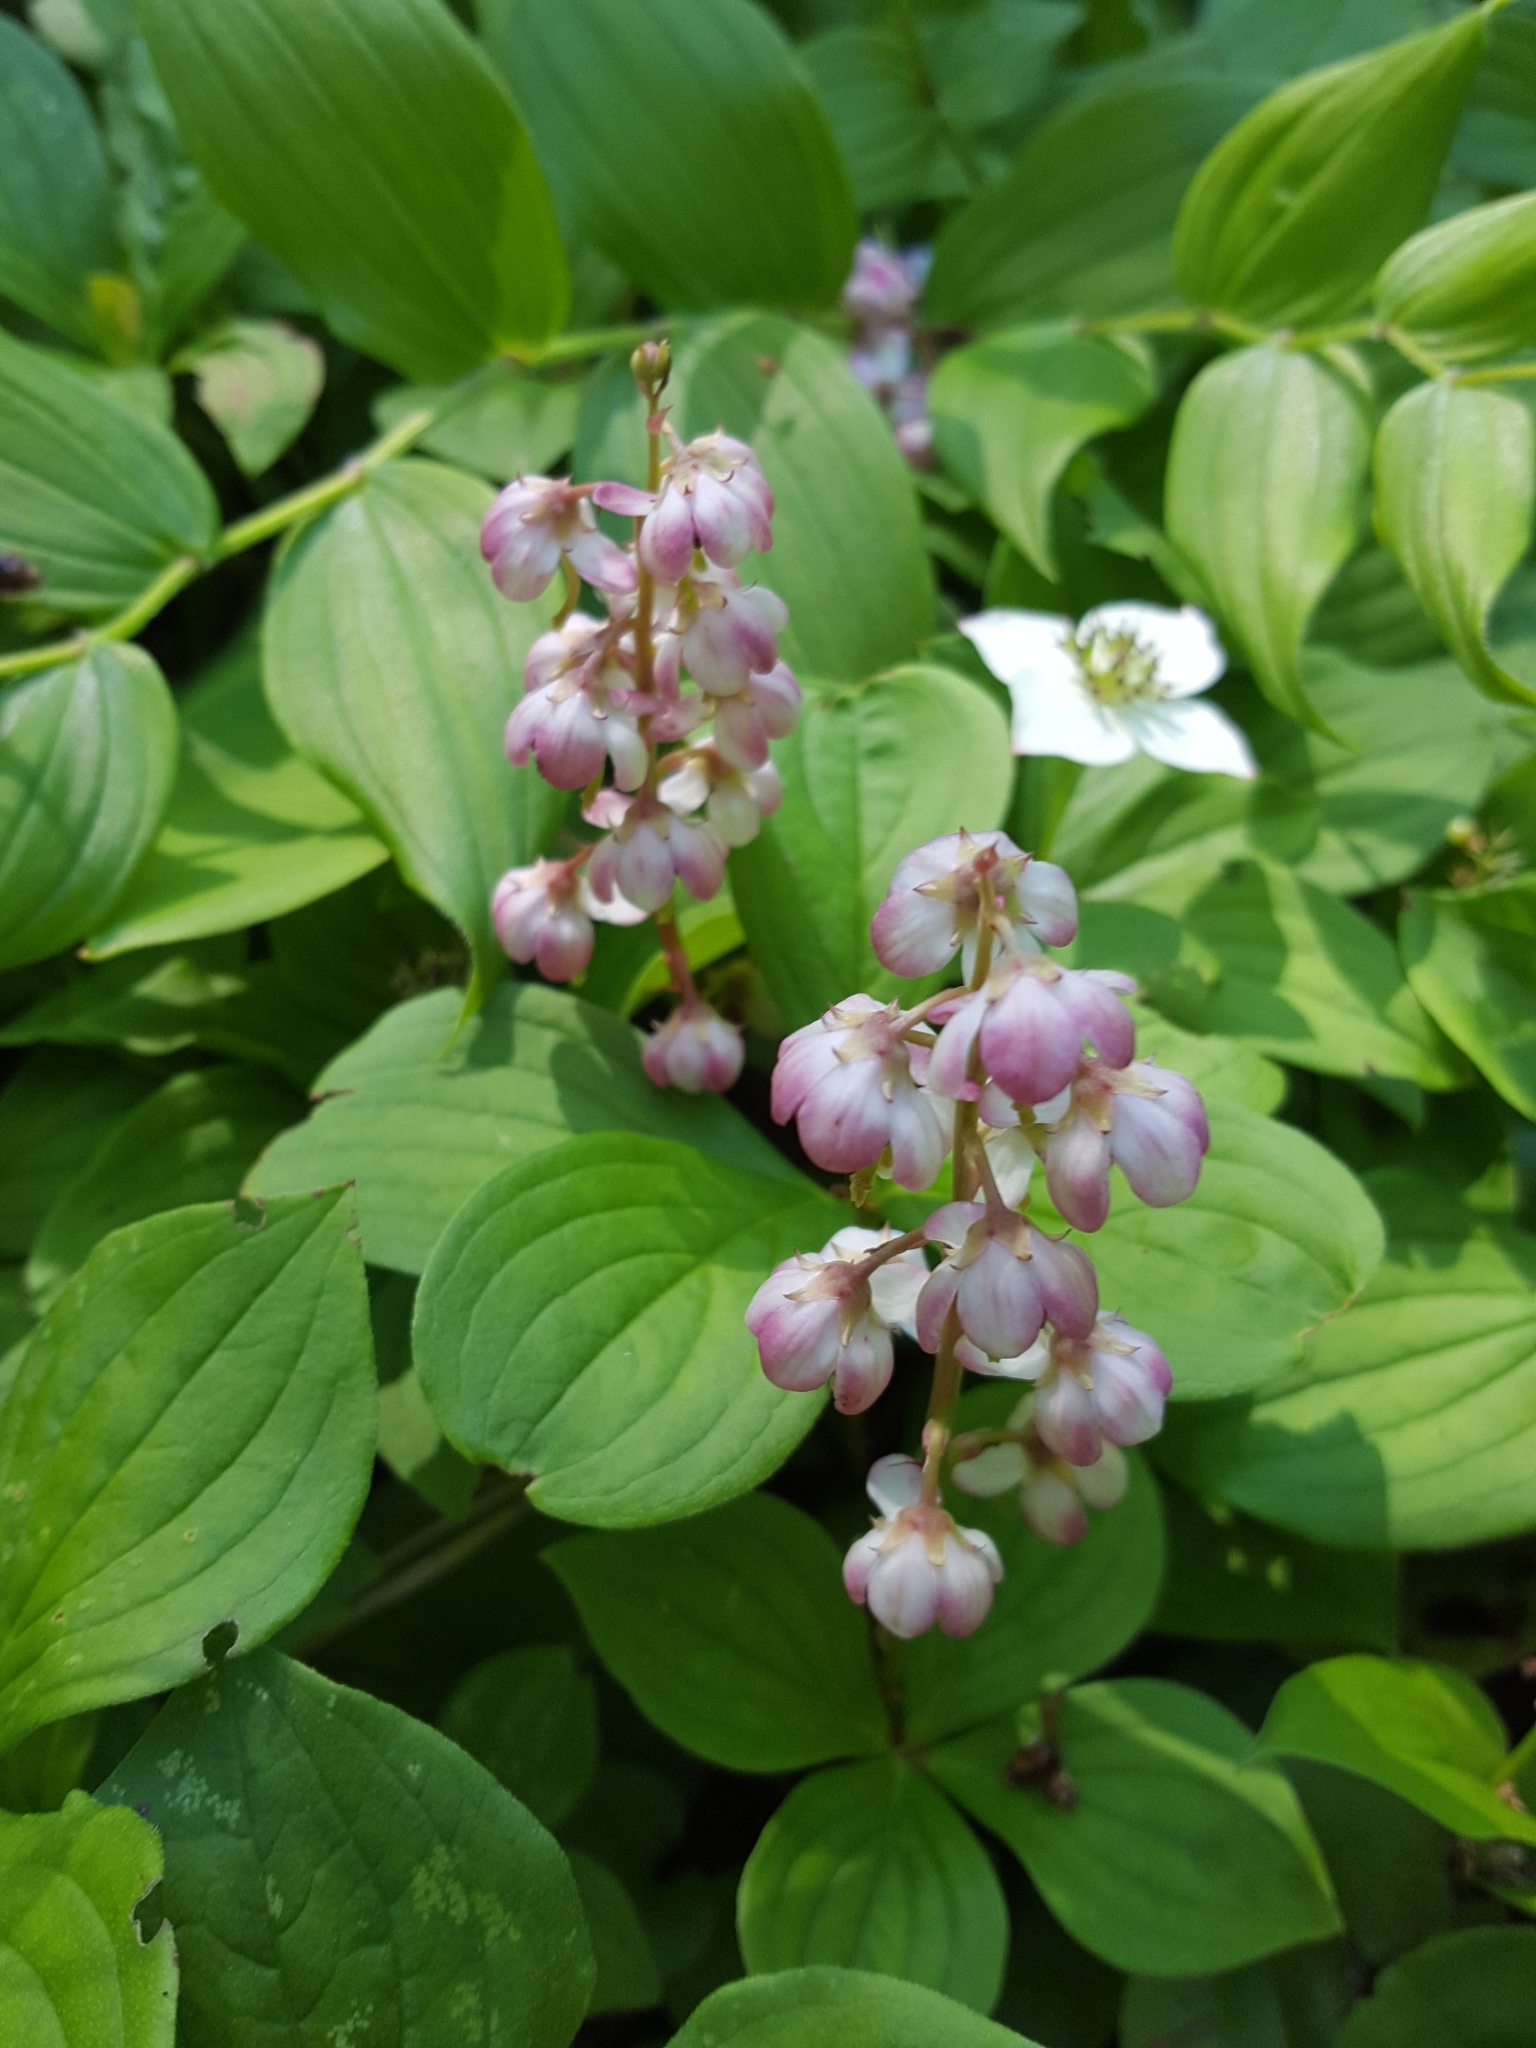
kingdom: Plantae
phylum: Tracheophyta
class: Magnoliopsida
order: Ericales
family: Ericaceae
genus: Pyrola
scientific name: Pyrola asarifolia
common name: Bog wintergreen
